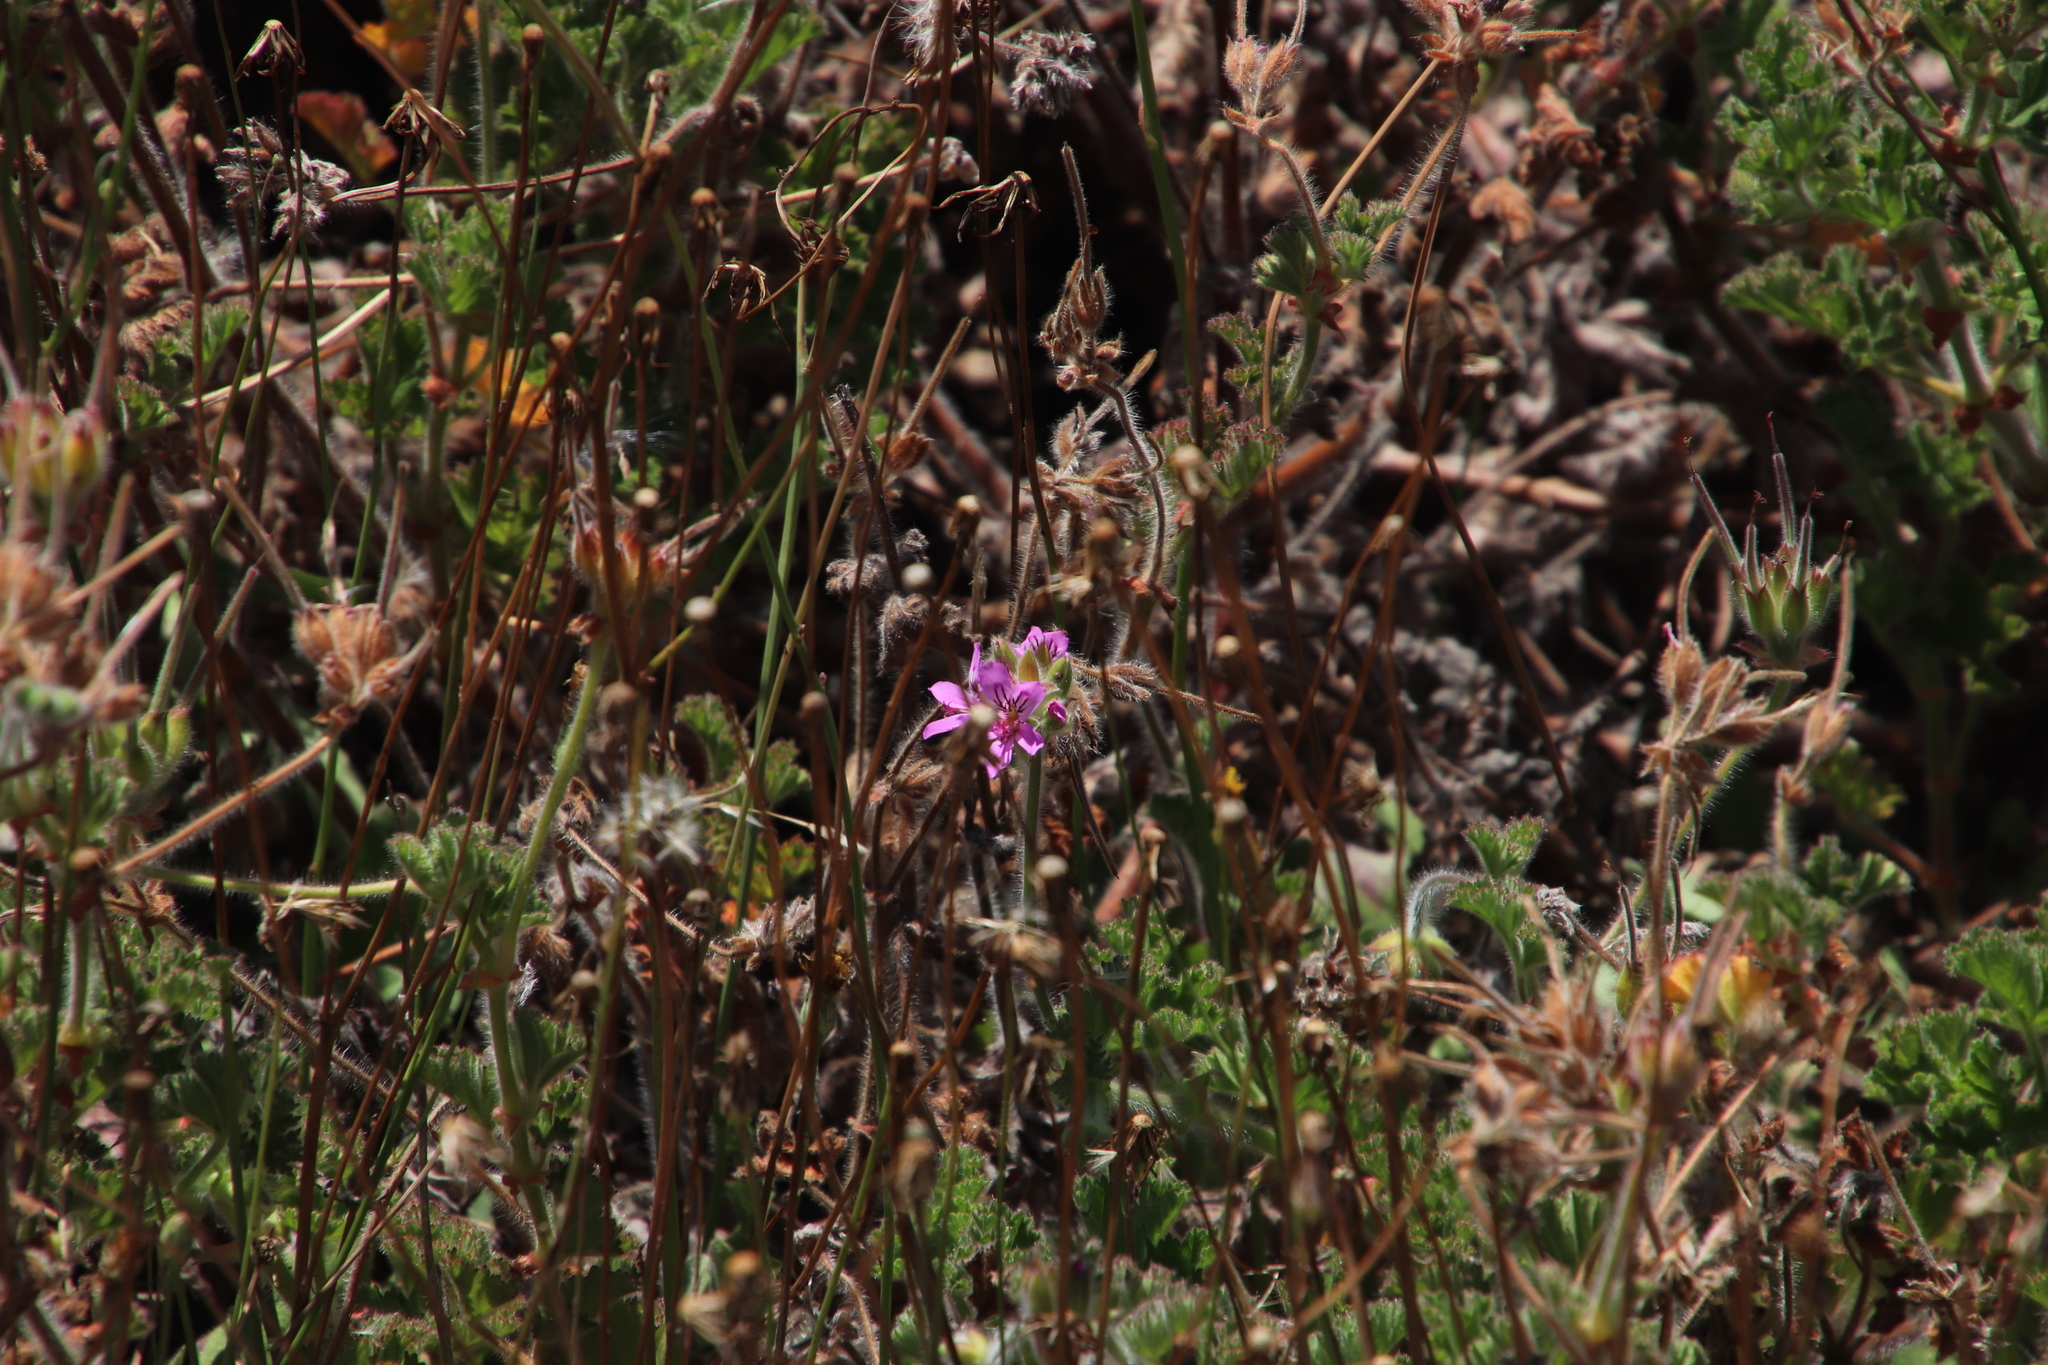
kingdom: Plantae
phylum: Tracheophyta
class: Magnoliopsida
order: Geraniales
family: Geraniaceae
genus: Pelargonium
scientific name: Pelargonium capitatum
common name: Rose scented geranium
